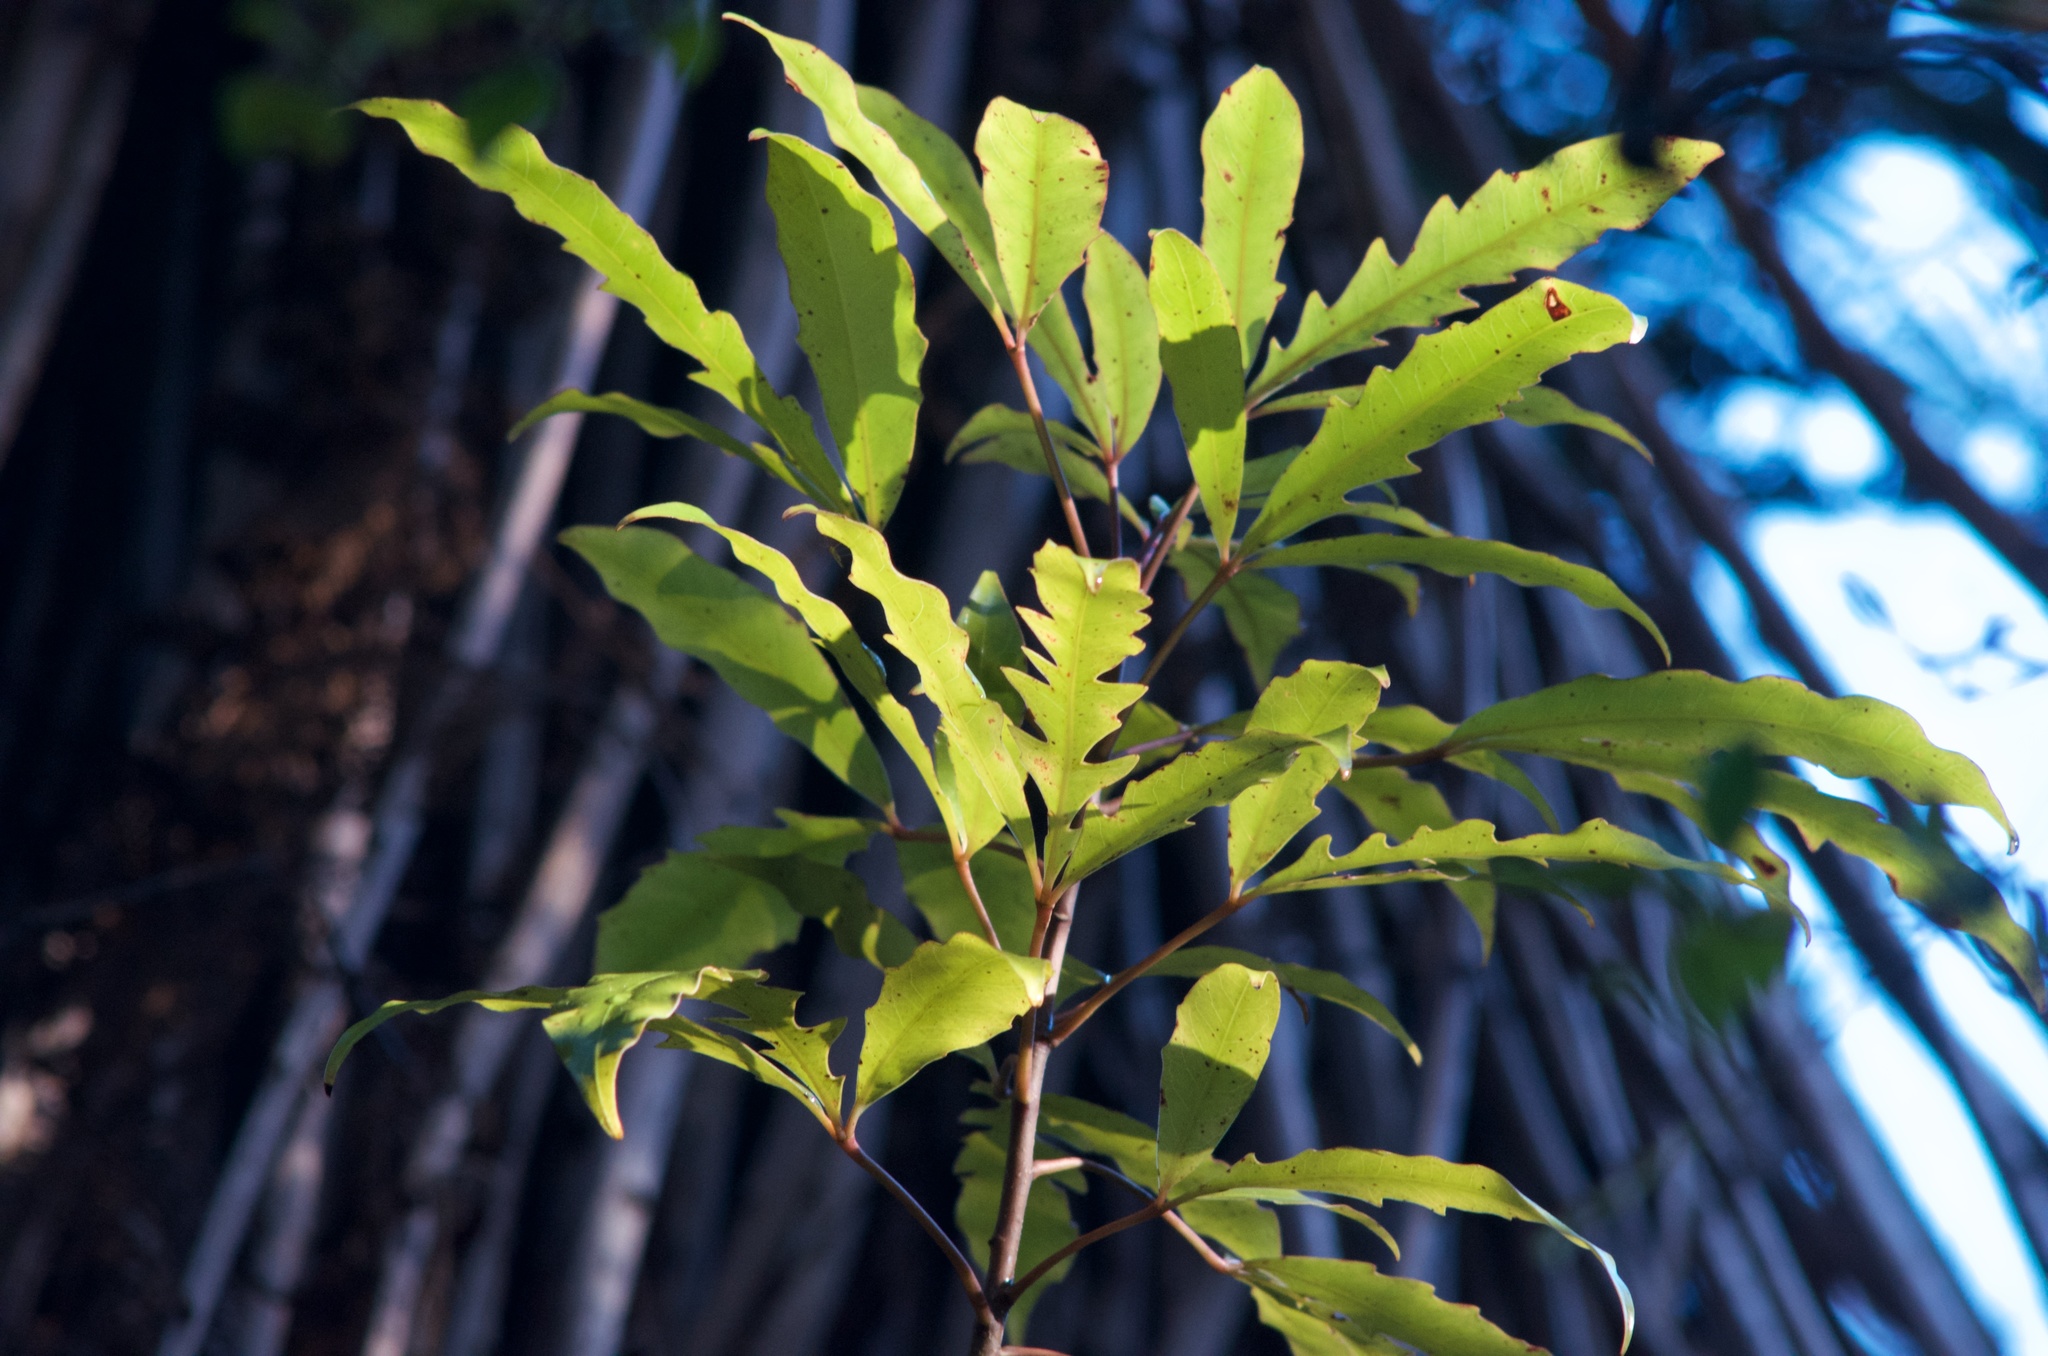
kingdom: Plantae
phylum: Tracheophyta
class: Magnoliopsida
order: Apiales
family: Araliaceae
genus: Raukaua
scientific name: Raukaua edgerleyi
